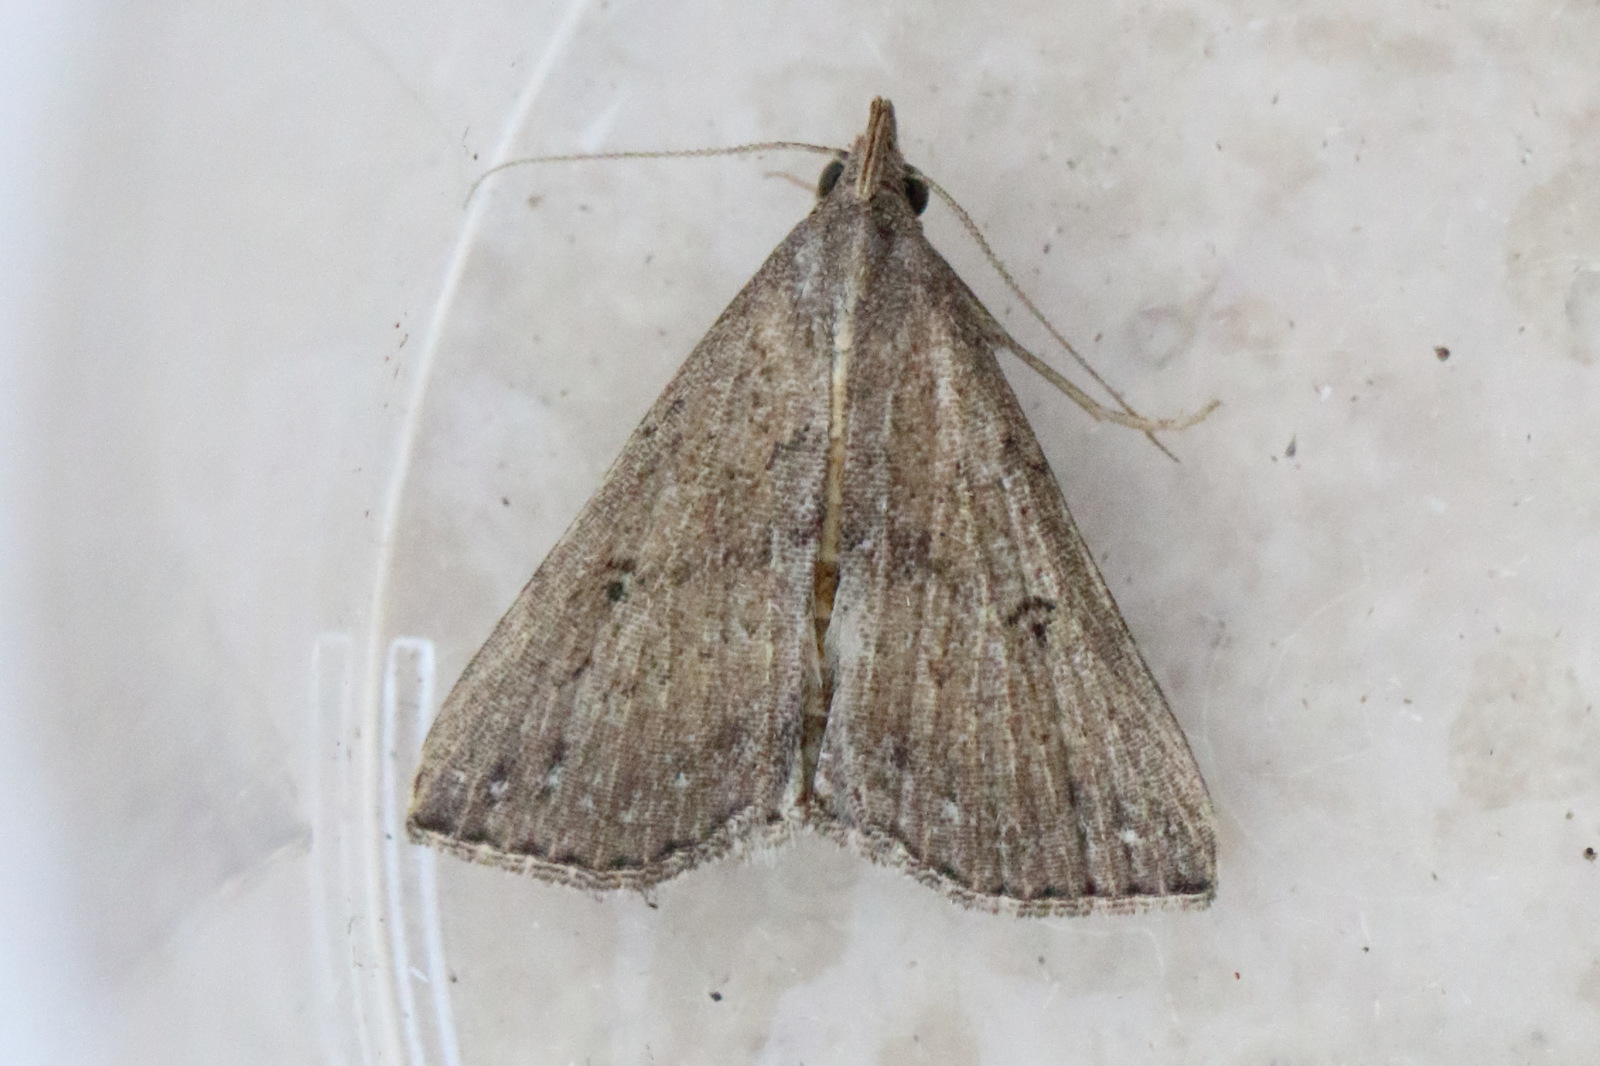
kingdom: Animalia
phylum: Arthropoda
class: Insecta
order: Lepidoptera
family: Erebidae
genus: Hypena
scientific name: Hypena umbrifera
